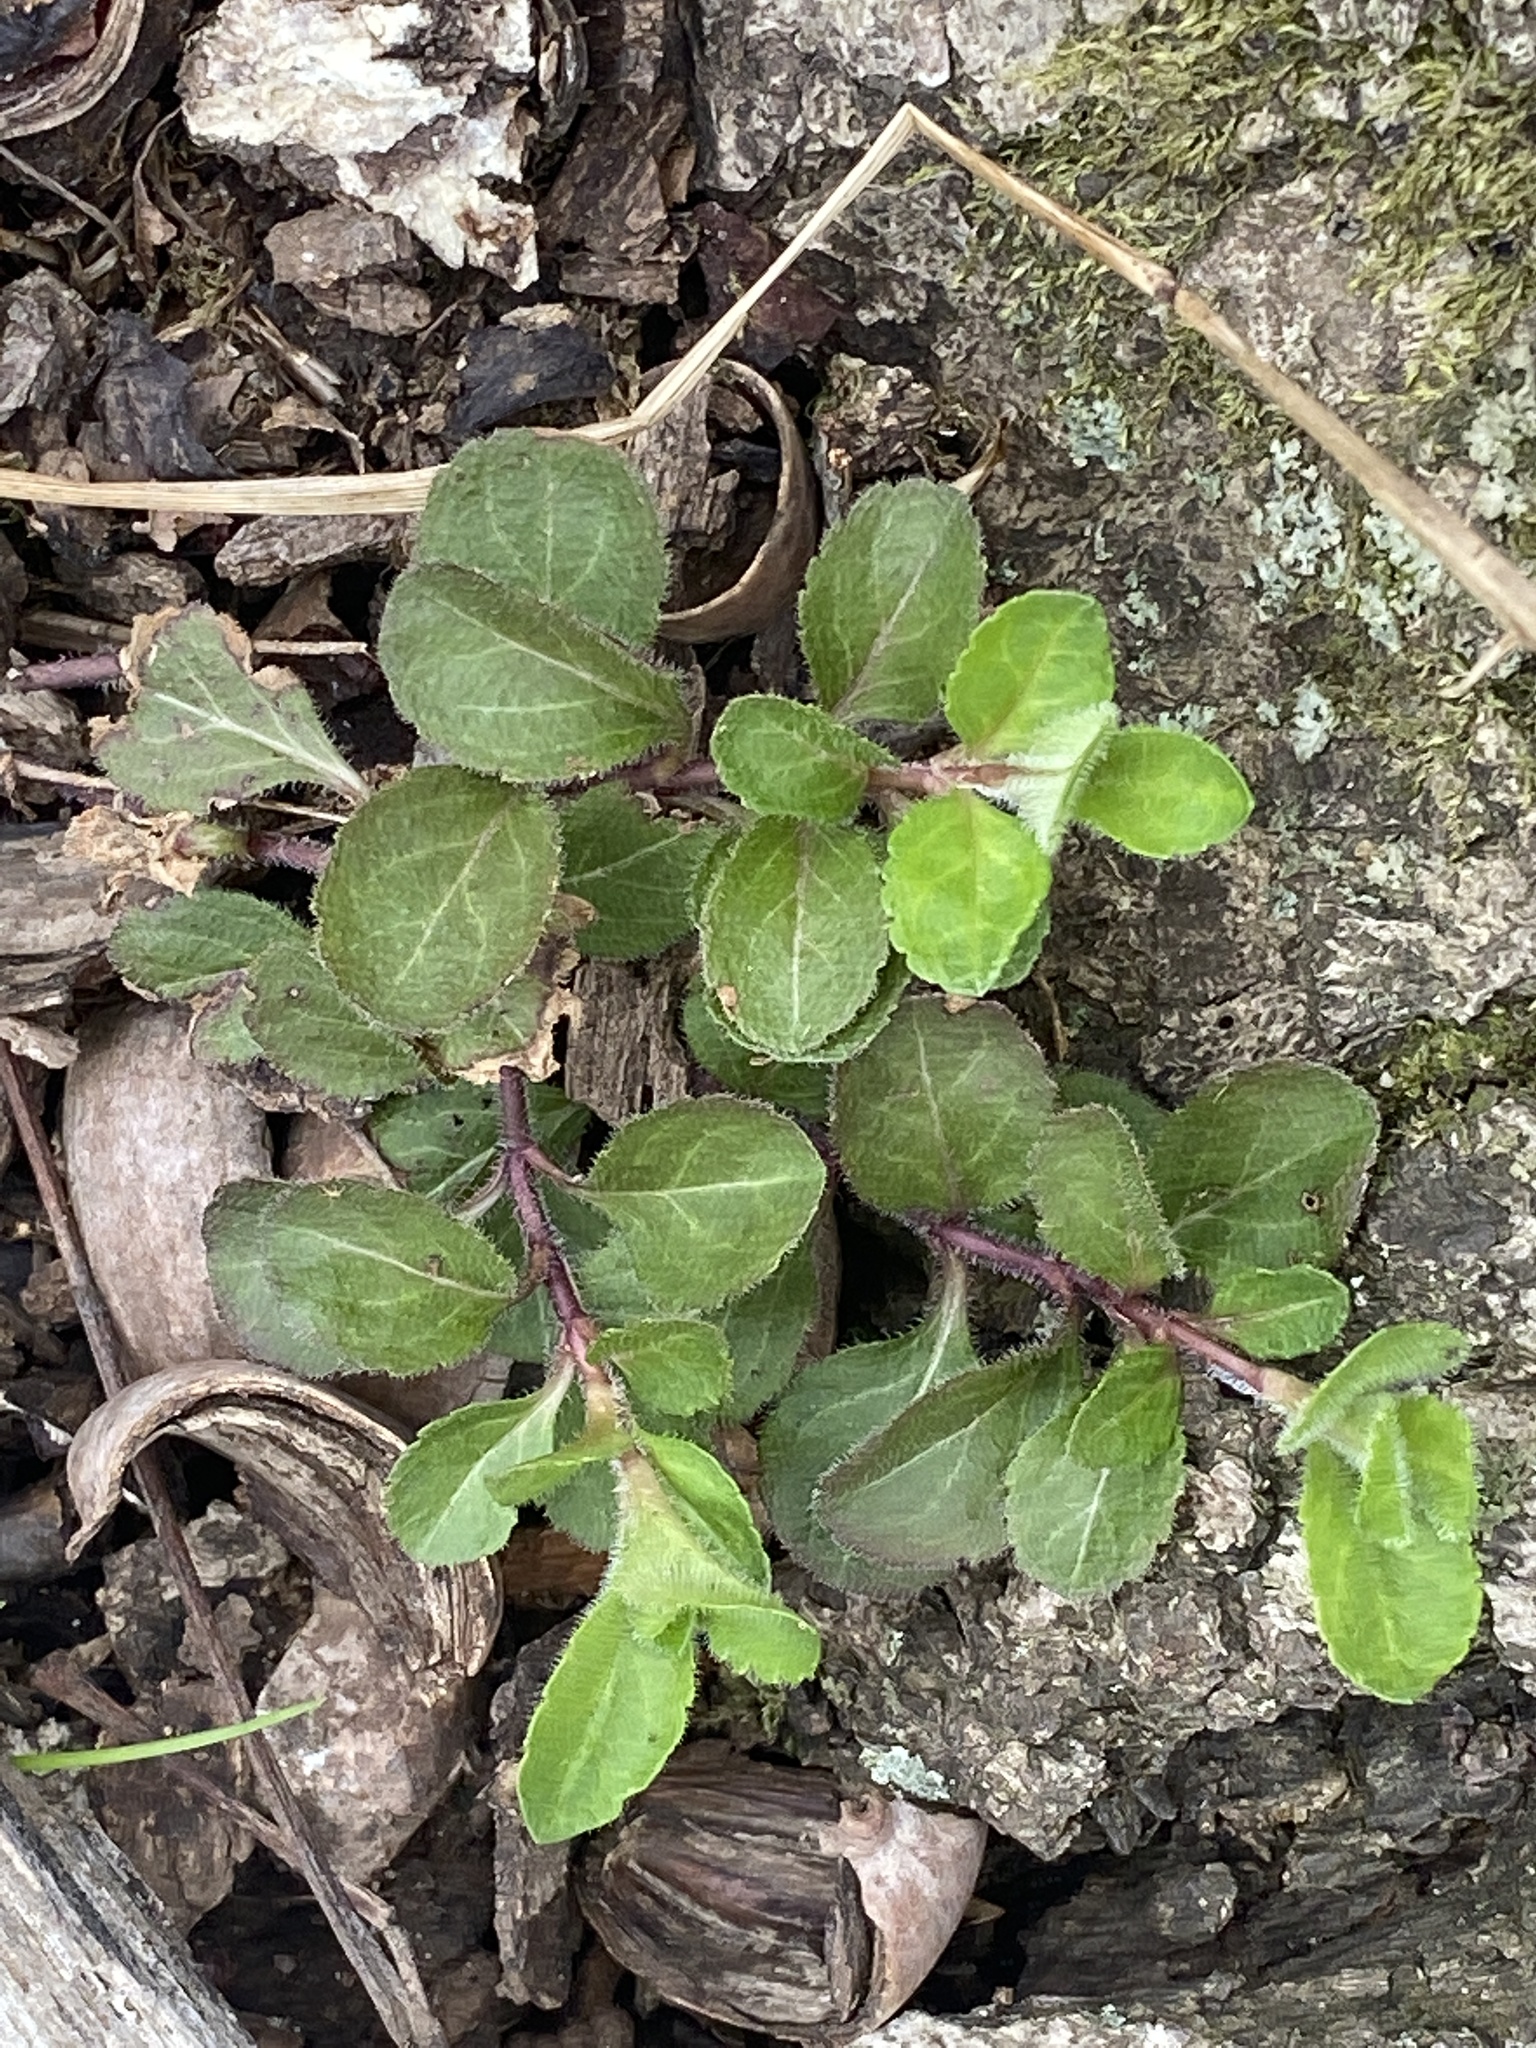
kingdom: Plantae
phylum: Tracheophyta
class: Magnoliopsida
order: Lamiales
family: Plantaginaceae
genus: Veronica
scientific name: Veronica officinalis
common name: Common speedwell
